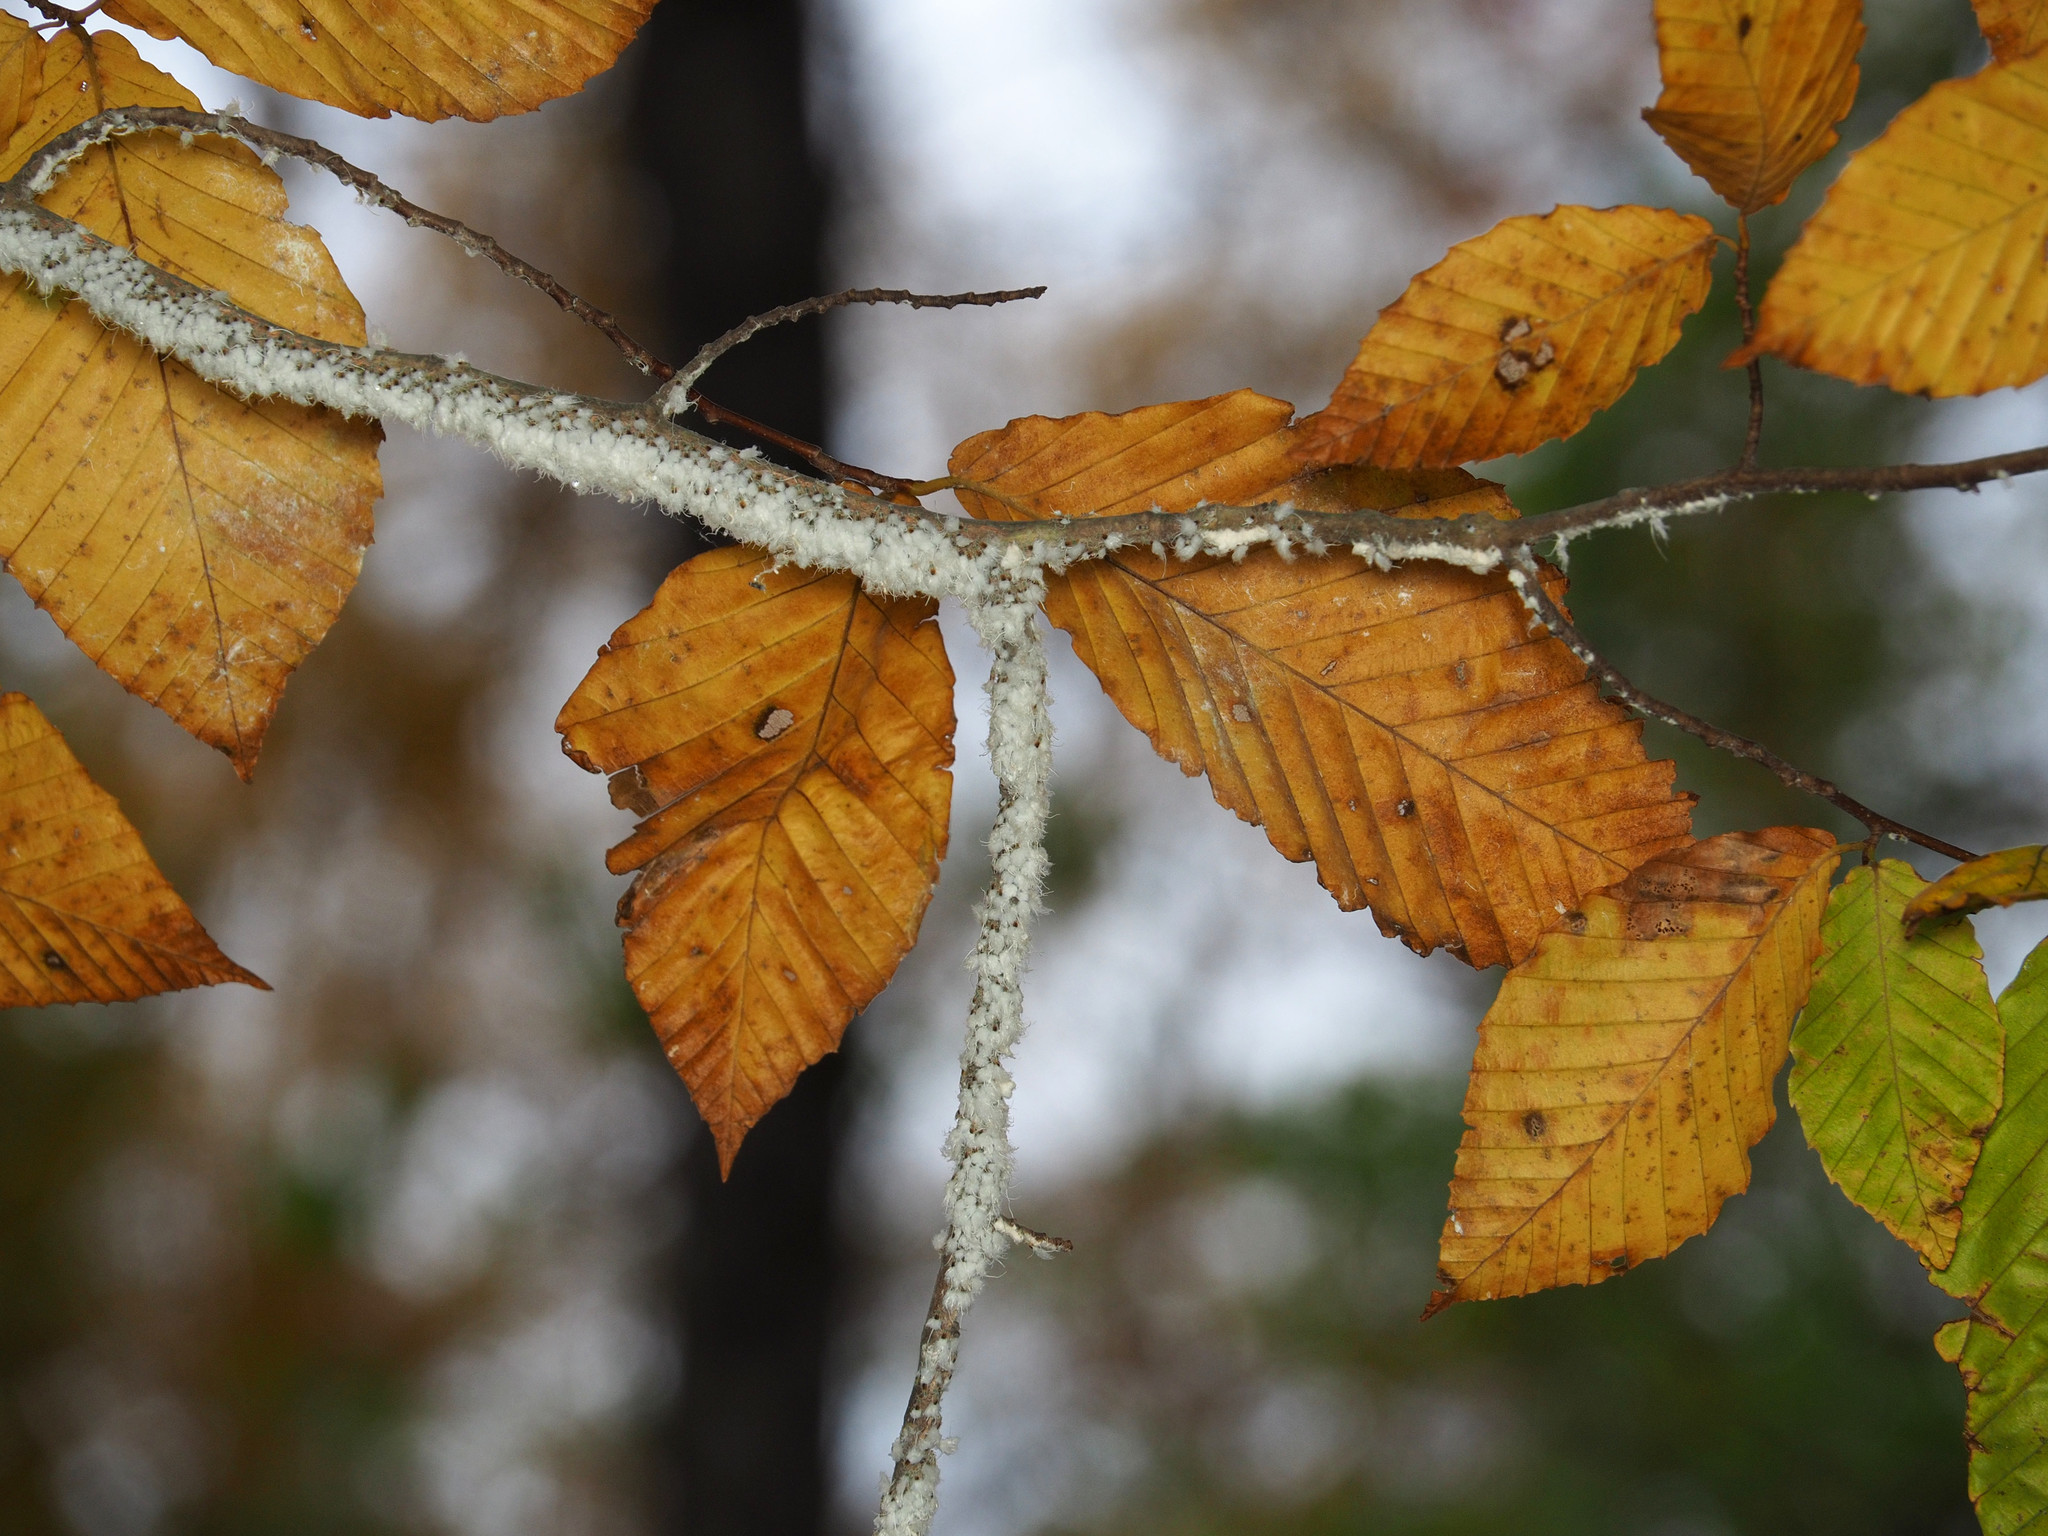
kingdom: Animalia
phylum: Arthropoda
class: Insecta
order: Hemiptera
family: Aphididae
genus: Grylloprociphilus
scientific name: Grylloprociphilus imbricator
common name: Beech blight aphid
